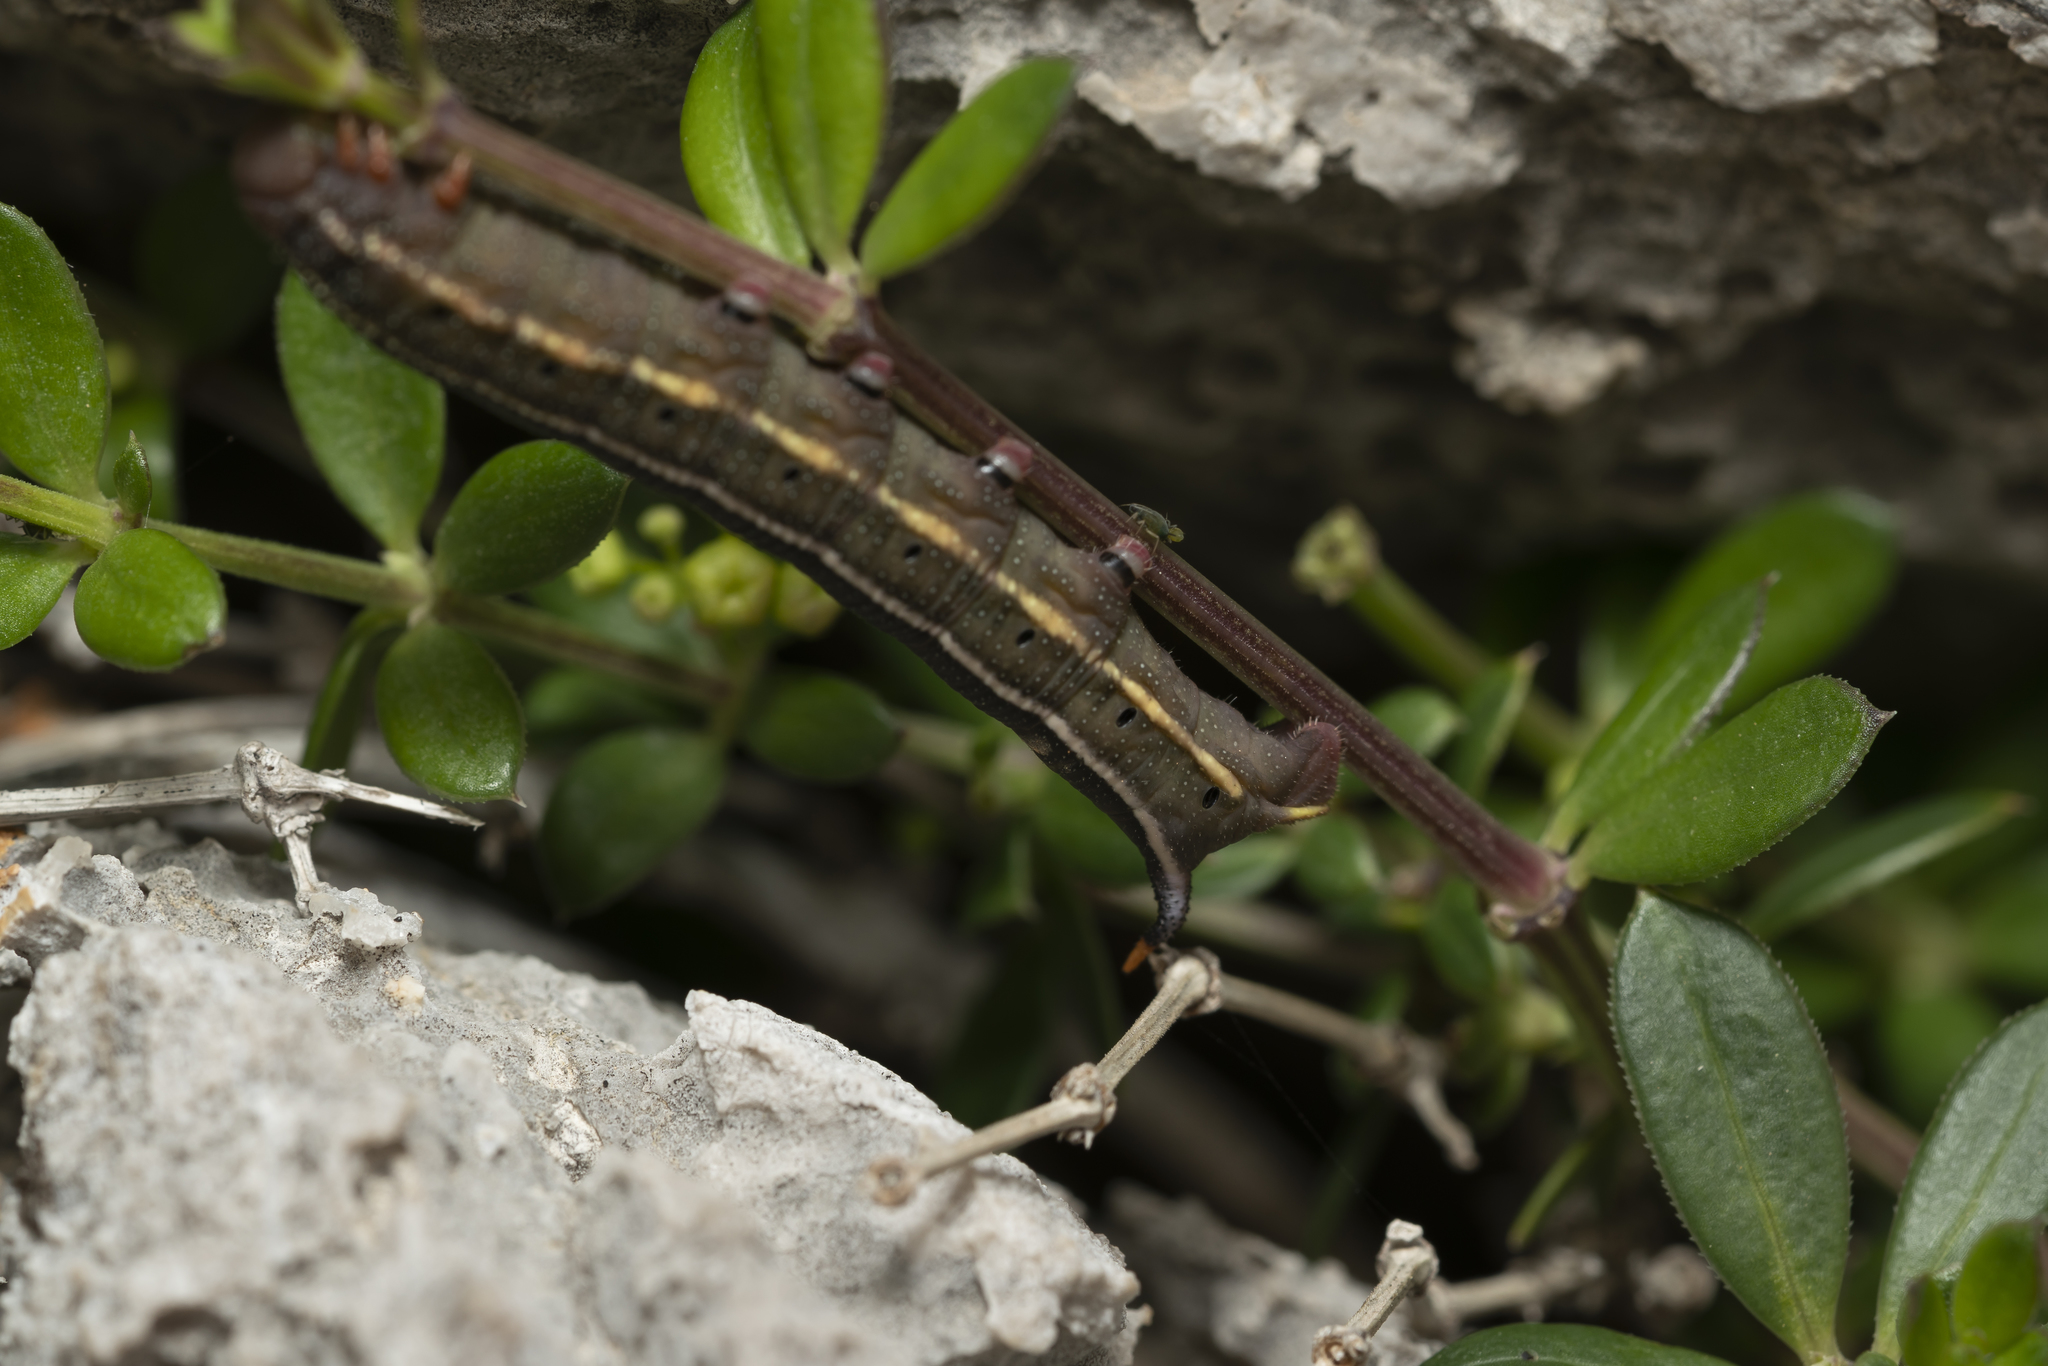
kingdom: Animalia
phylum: Arthropoda
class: Insecta
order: Lepidoptera
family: Sphingidae
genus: Macroglossum
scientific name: Macroglossum stellatarum
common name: Humming-bird hawk-moth
